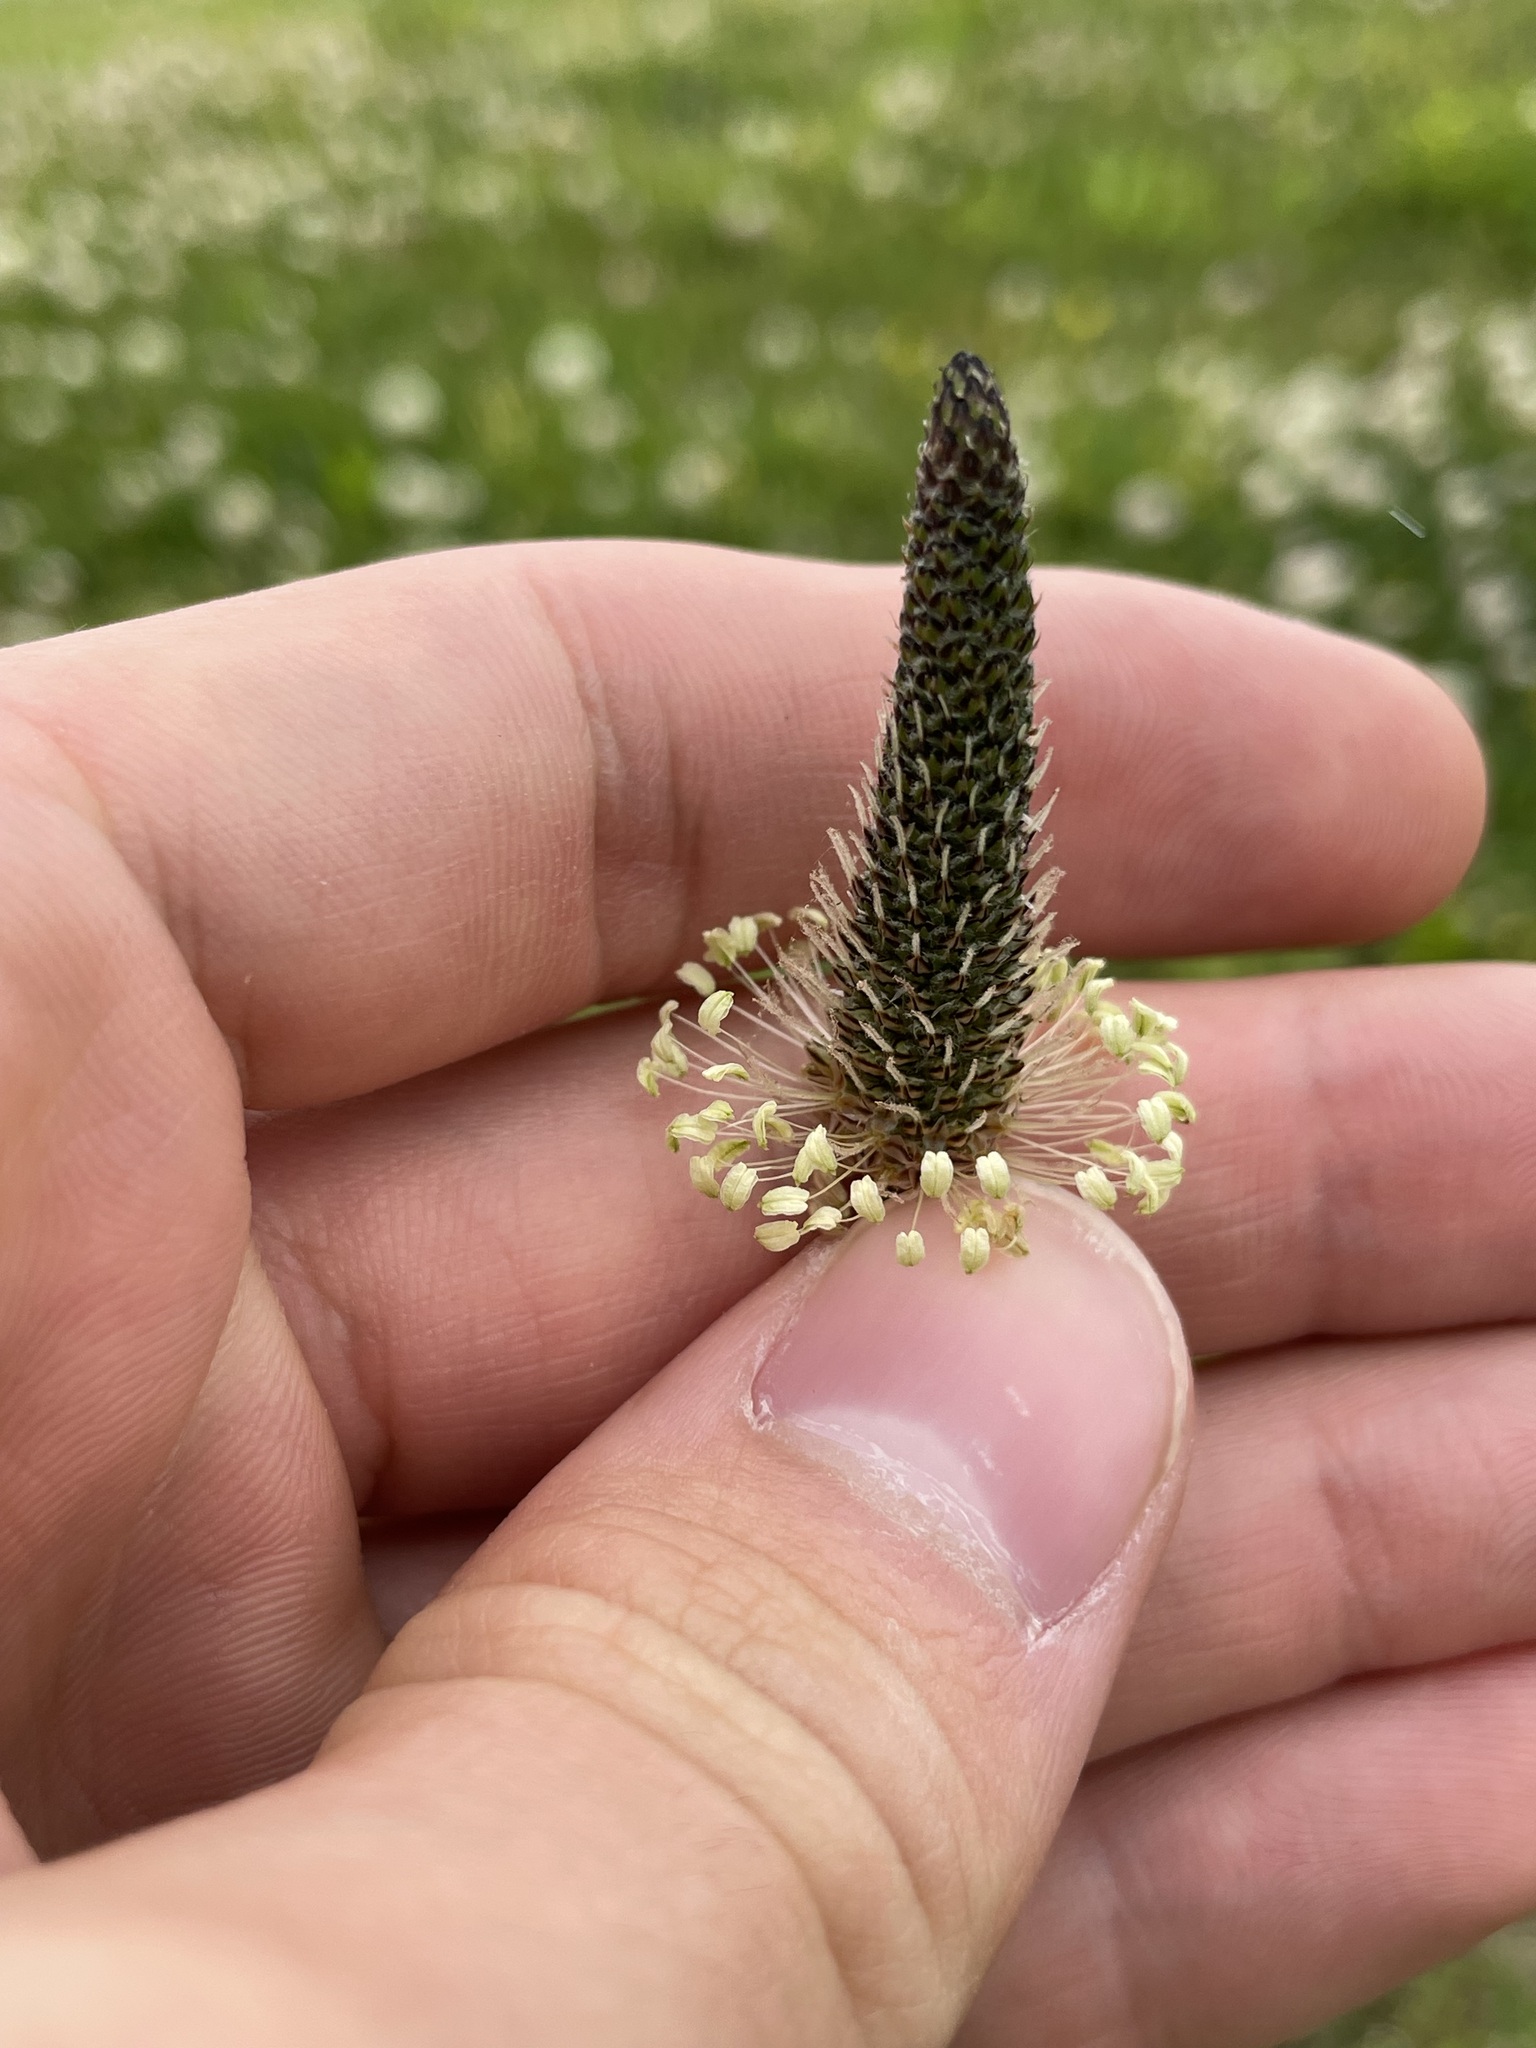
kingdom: Plantae
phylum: Tracheophyta
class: Magnoliopsida
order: Lamiales
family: Plantaginaceae
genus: Plantago
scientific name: Plantago lanceolata
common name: Ribwort plantain
